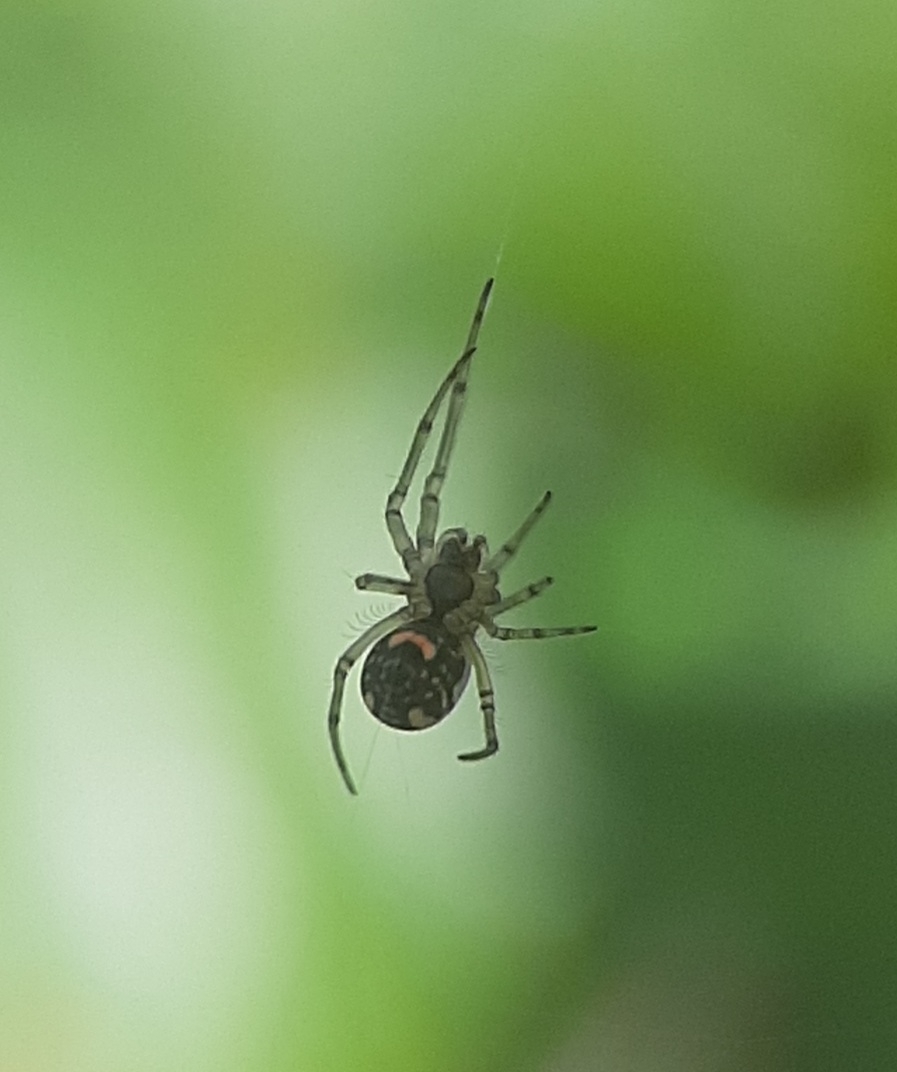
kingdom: Animalia
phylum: Arthropoda
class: Arachnida
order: Araneae
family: Tetragnathidae
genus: Leucauge
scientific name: Leucauge venusta
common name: Longjawed orb weavers
